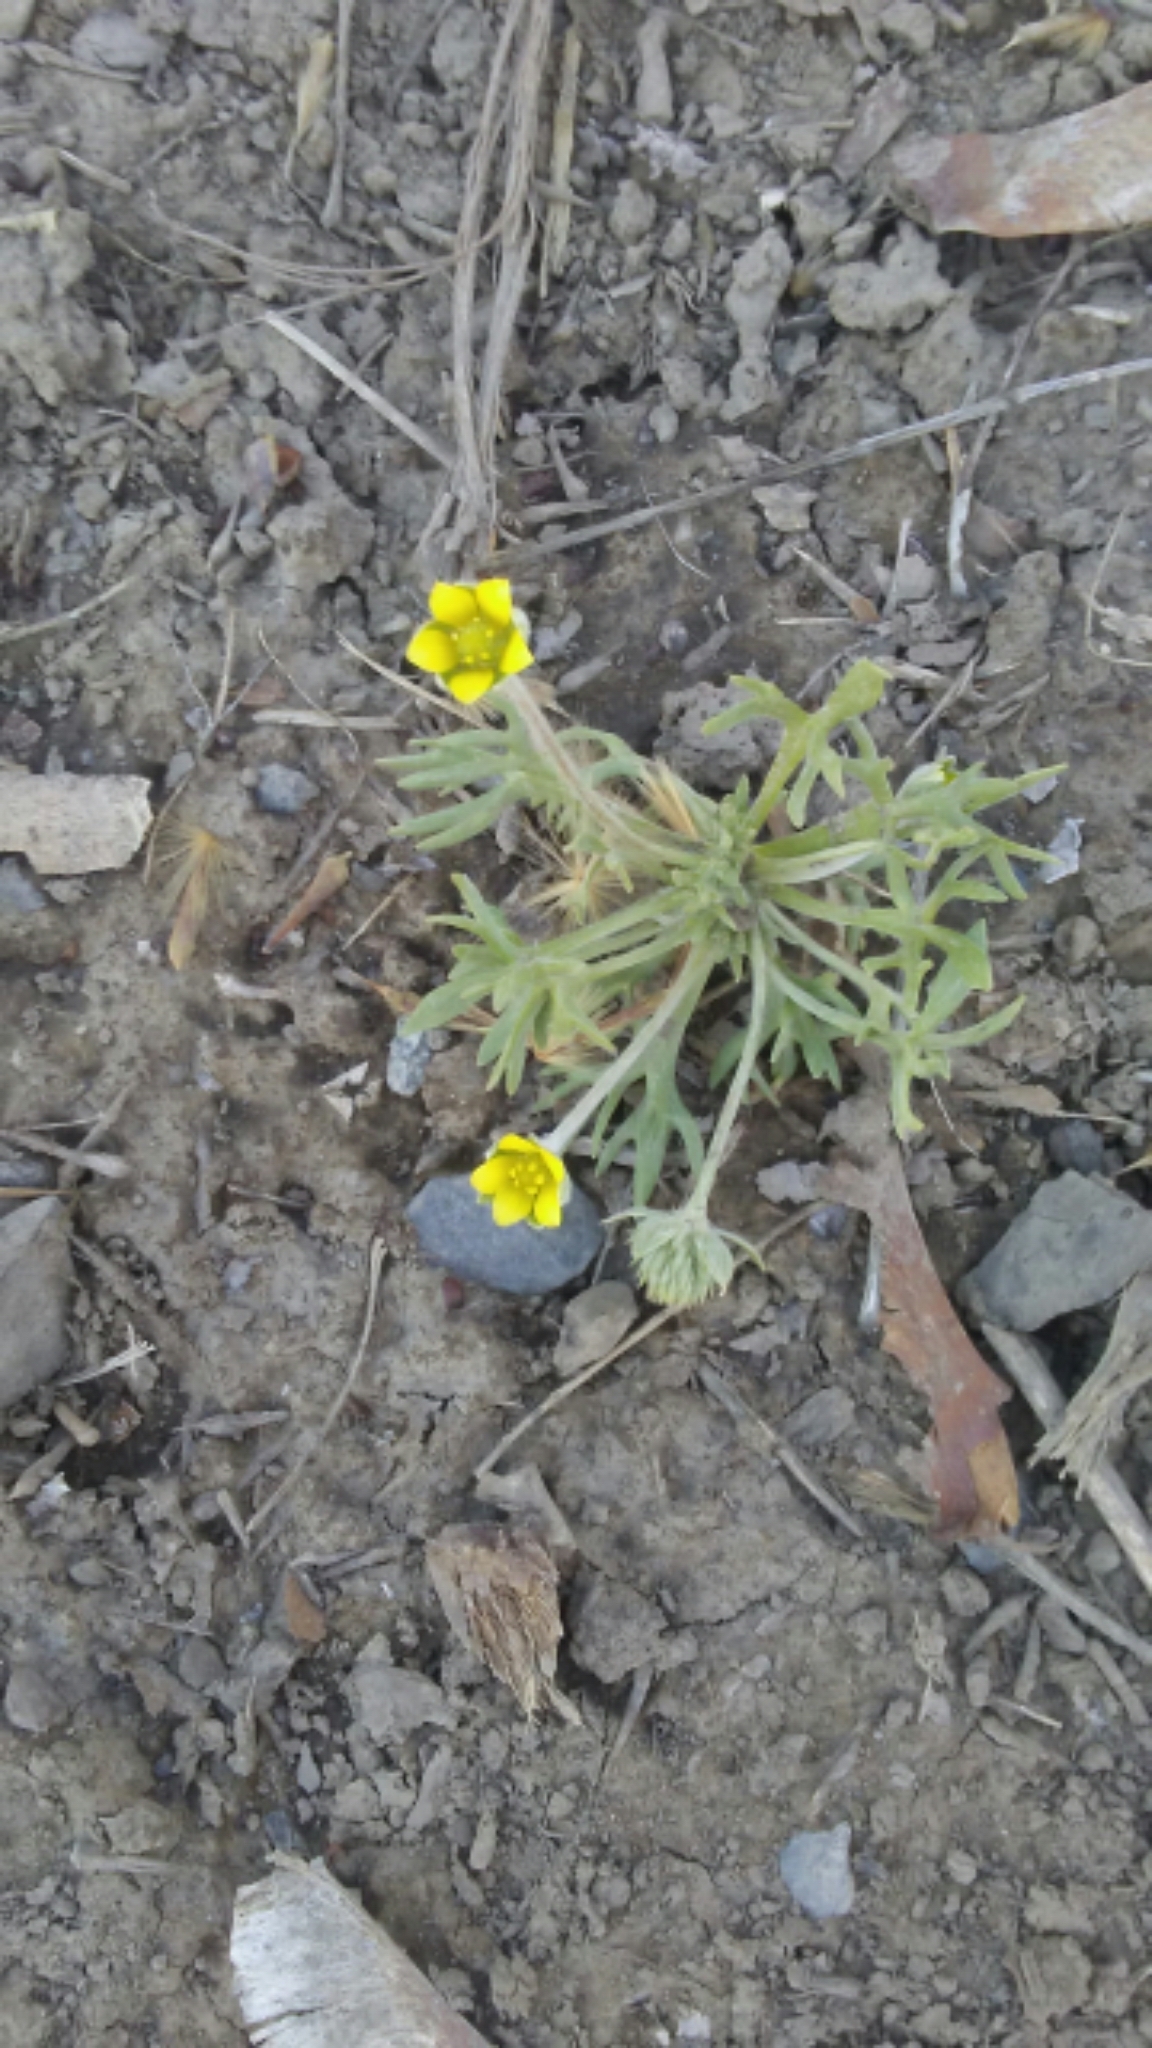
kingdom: Plantae
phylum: Tracheophyta
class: Magnoliopsida
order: Ranunculales
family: Ranunculaceae
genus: Ceratocephala
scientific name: Ceratocephala orthoceras
